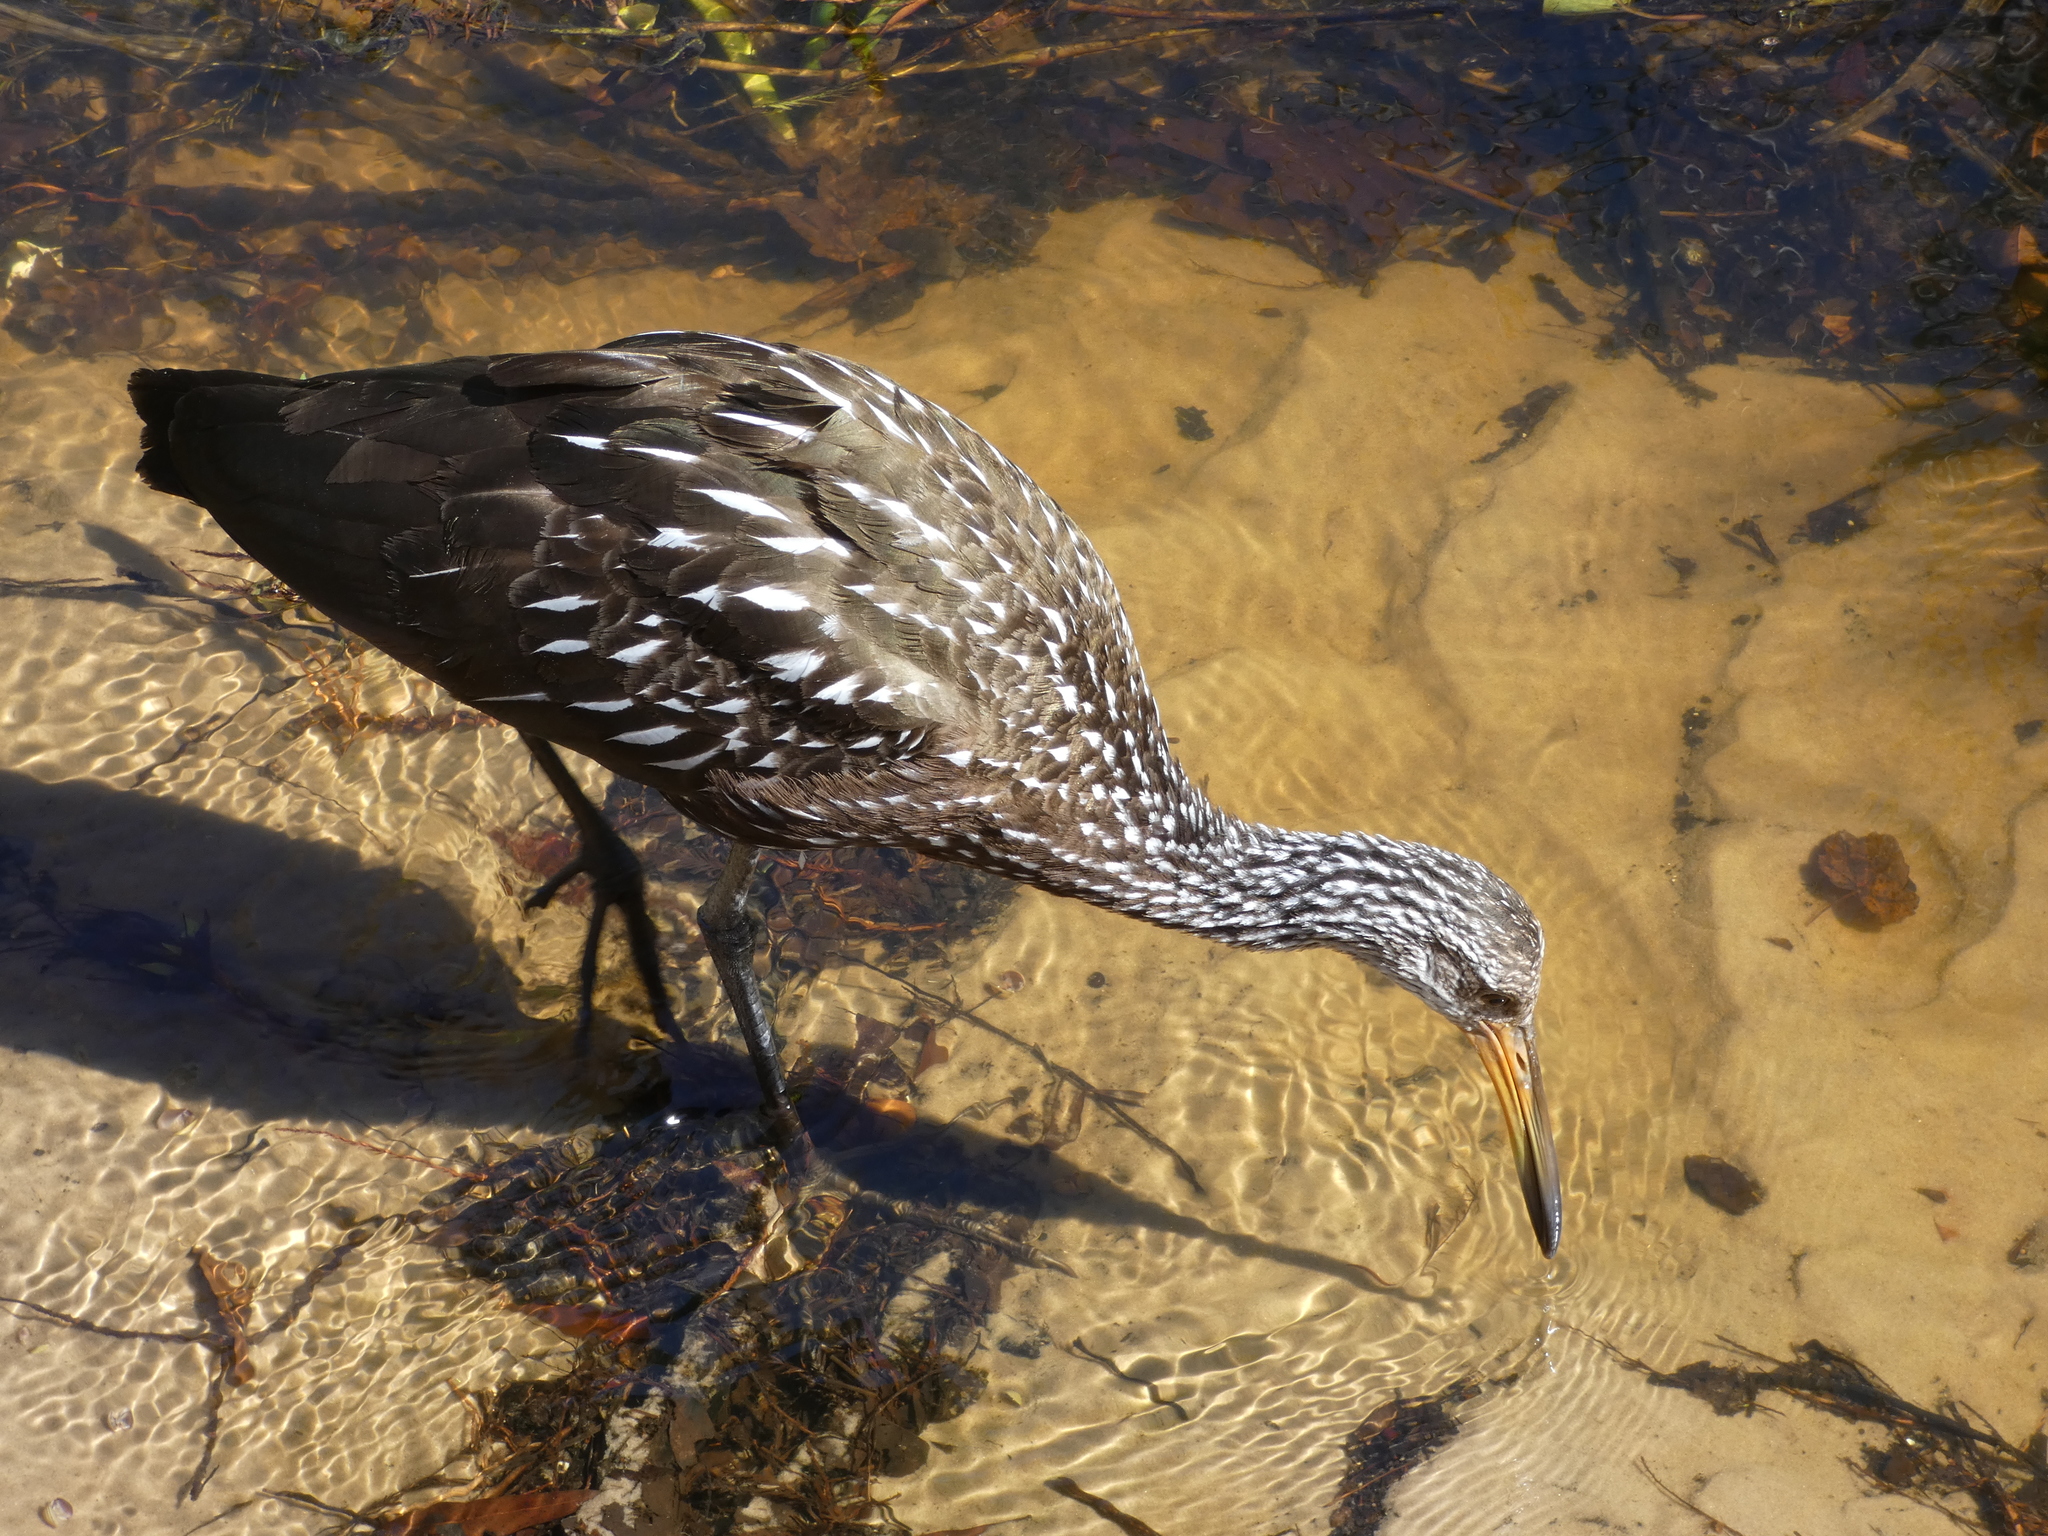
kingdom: Animalia
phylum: Chordata
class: Aves
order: Gruiformes
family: Aramidae
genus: Aramus
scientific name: Aramus guarauna
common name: Limpkin
